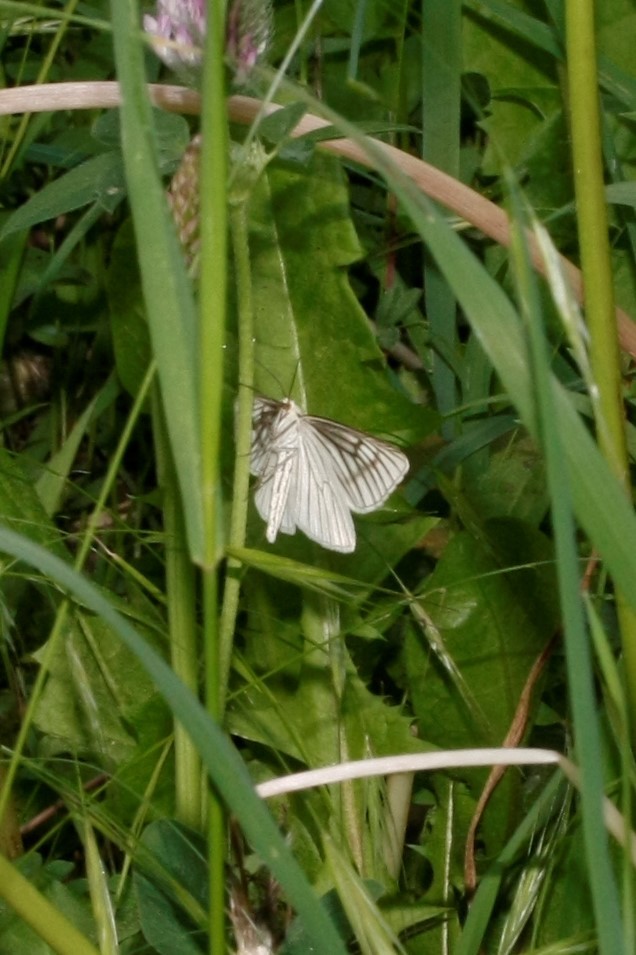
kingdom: Animalia
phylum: Arthropoda
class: Insecta
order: Lepidoptera
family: Geometridae
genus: Siona
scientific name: Siona lineata
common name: Black-veined moth
